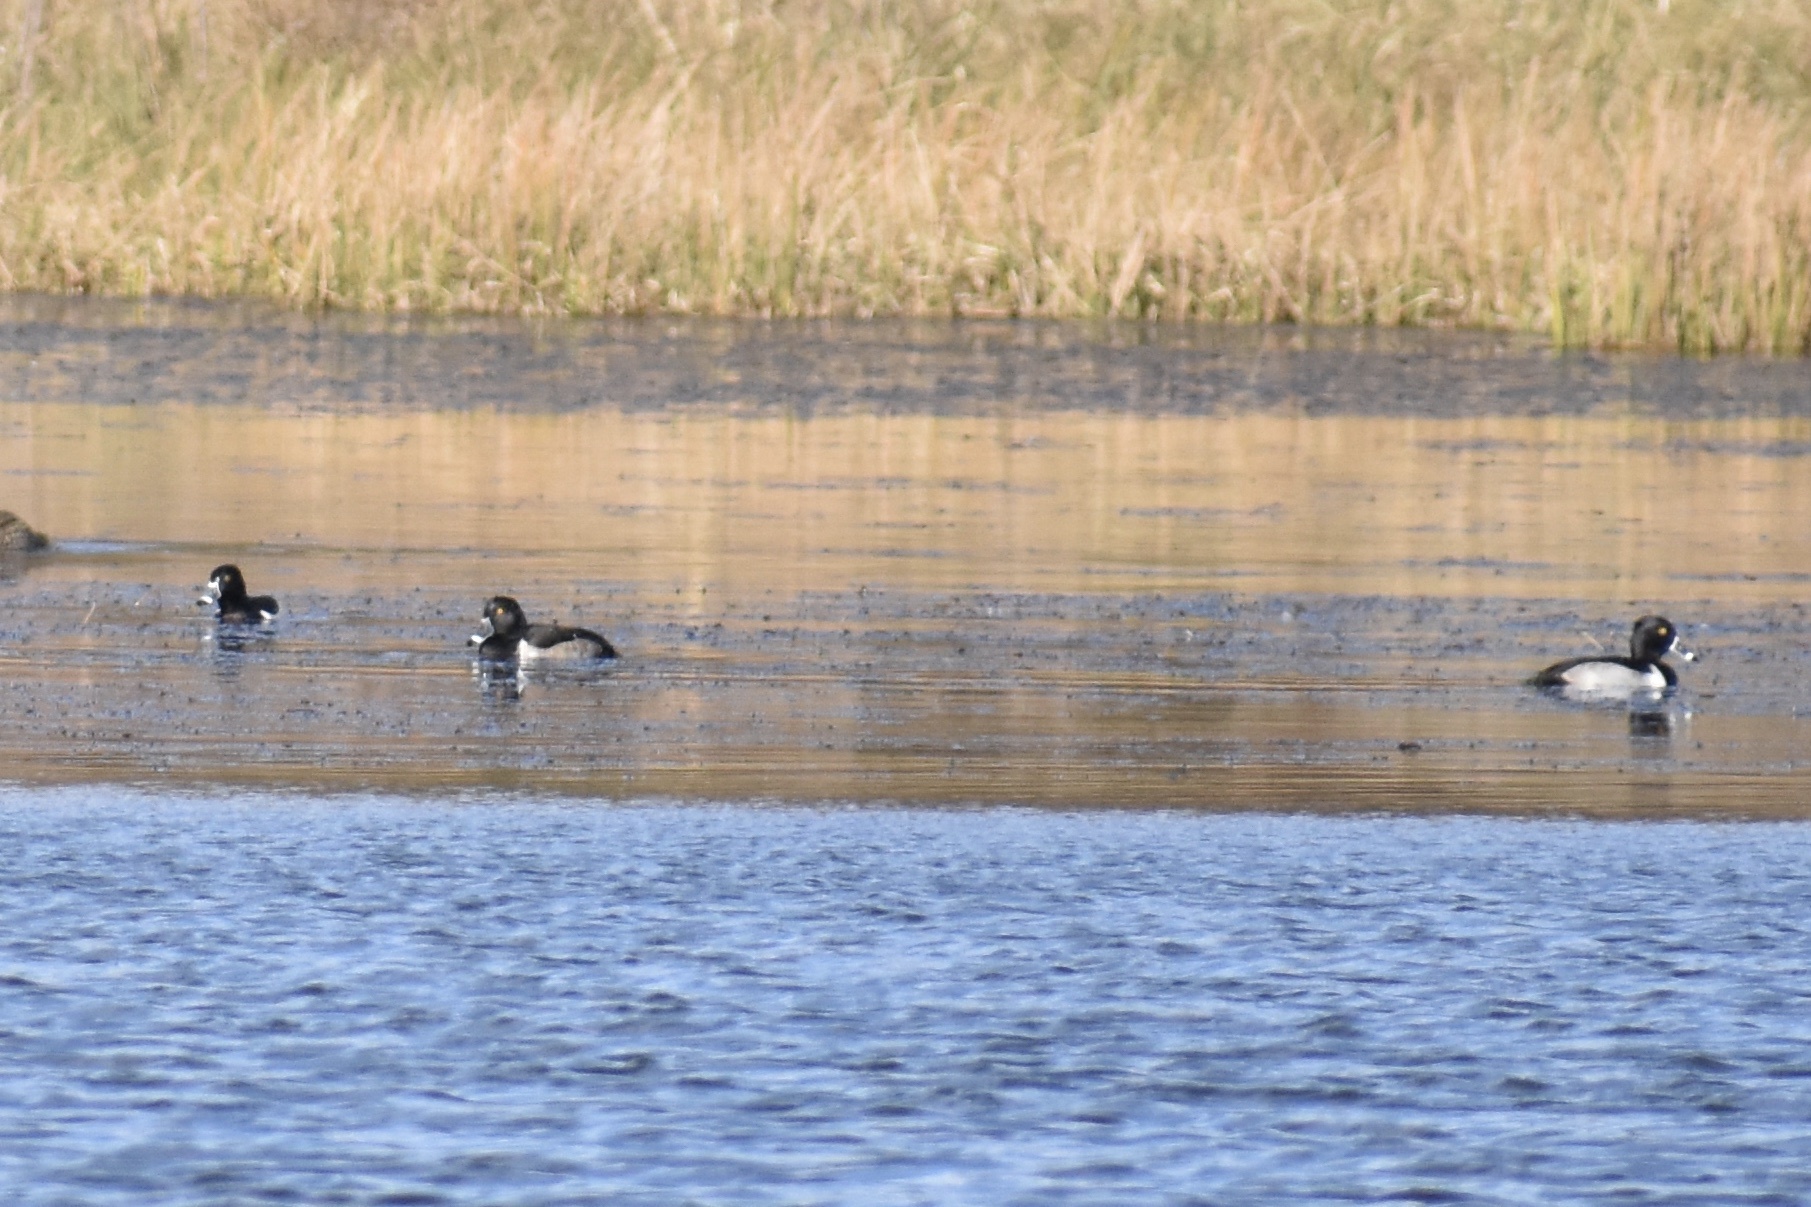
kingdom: Animalia
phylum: Chordata
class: Aves
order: Anseriformes
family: Anatidae
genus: Aythya
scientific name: Aythya collaris
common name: Ring-necked duck
